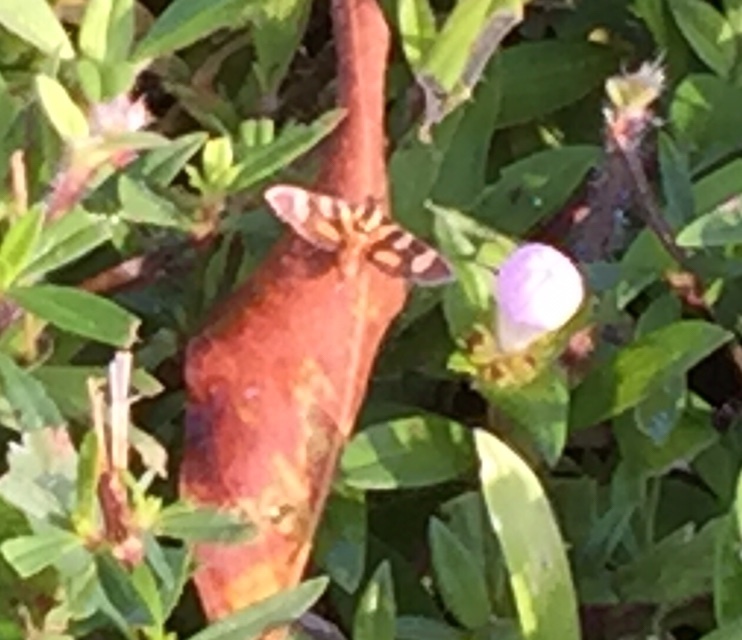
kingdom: Animalia
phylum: Arthropoda
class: Insecta
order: Lepidoptera
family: Crambidae
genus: Syngamia
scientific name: Syngamia florella
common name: Orange-spotted flower moth
